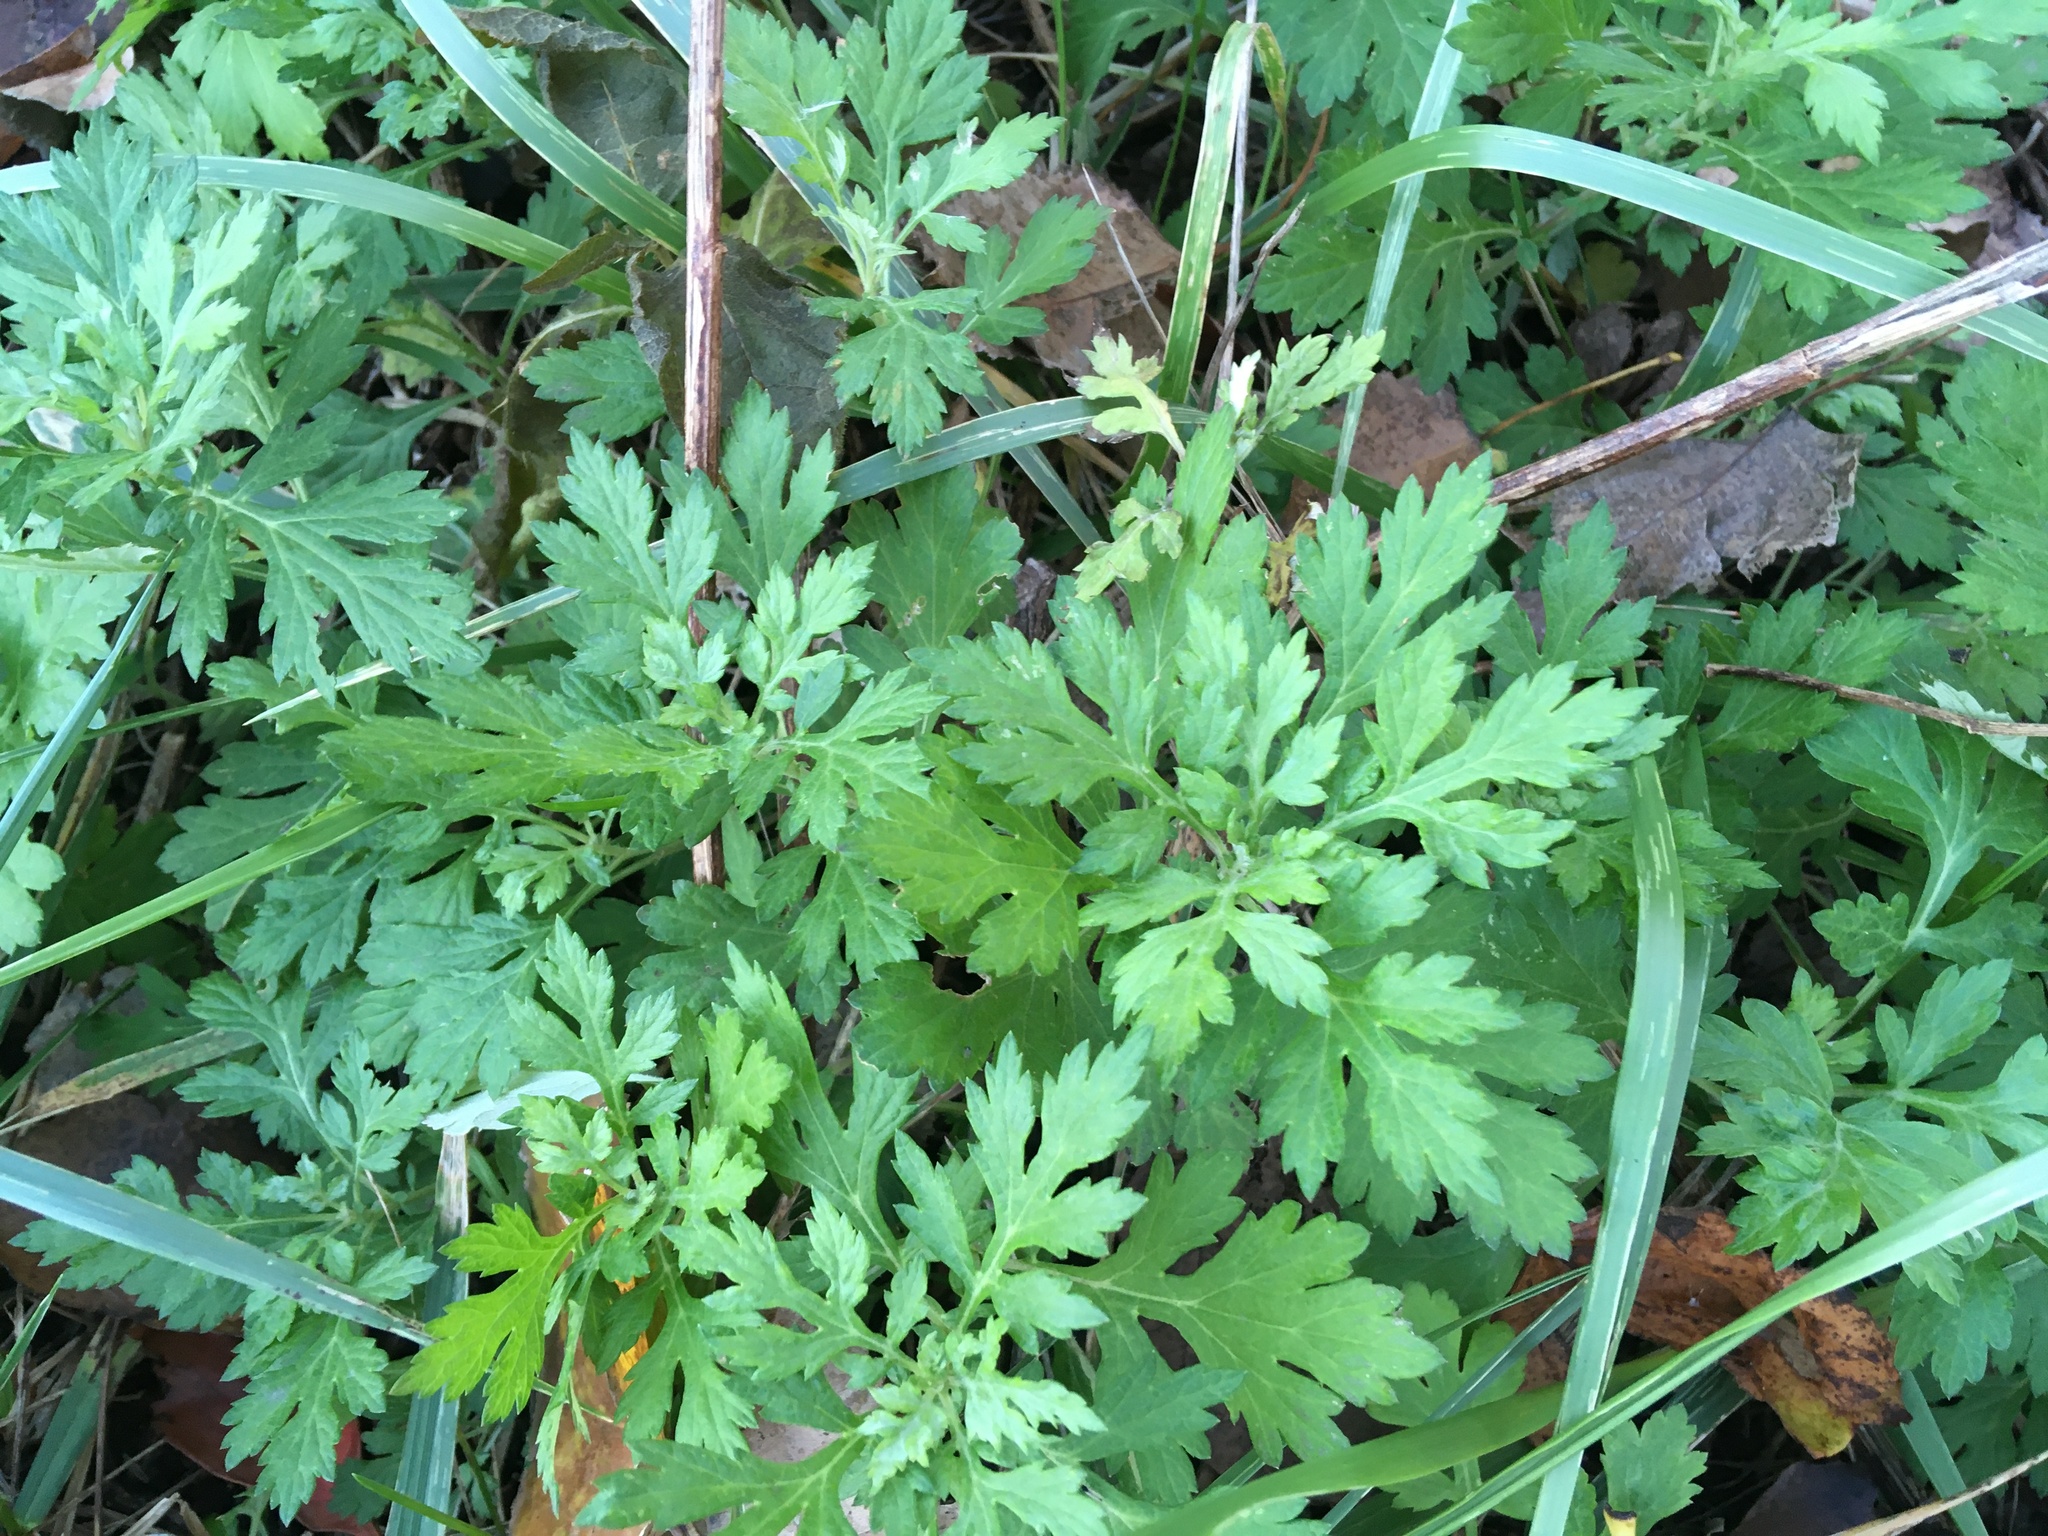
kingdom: Plantae
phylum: Tracheophyta
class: Magnoliopsida
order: Asterales
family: Asteraceae
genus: Artemisia
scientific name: Artemisia vulgaris
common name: Mugwort
